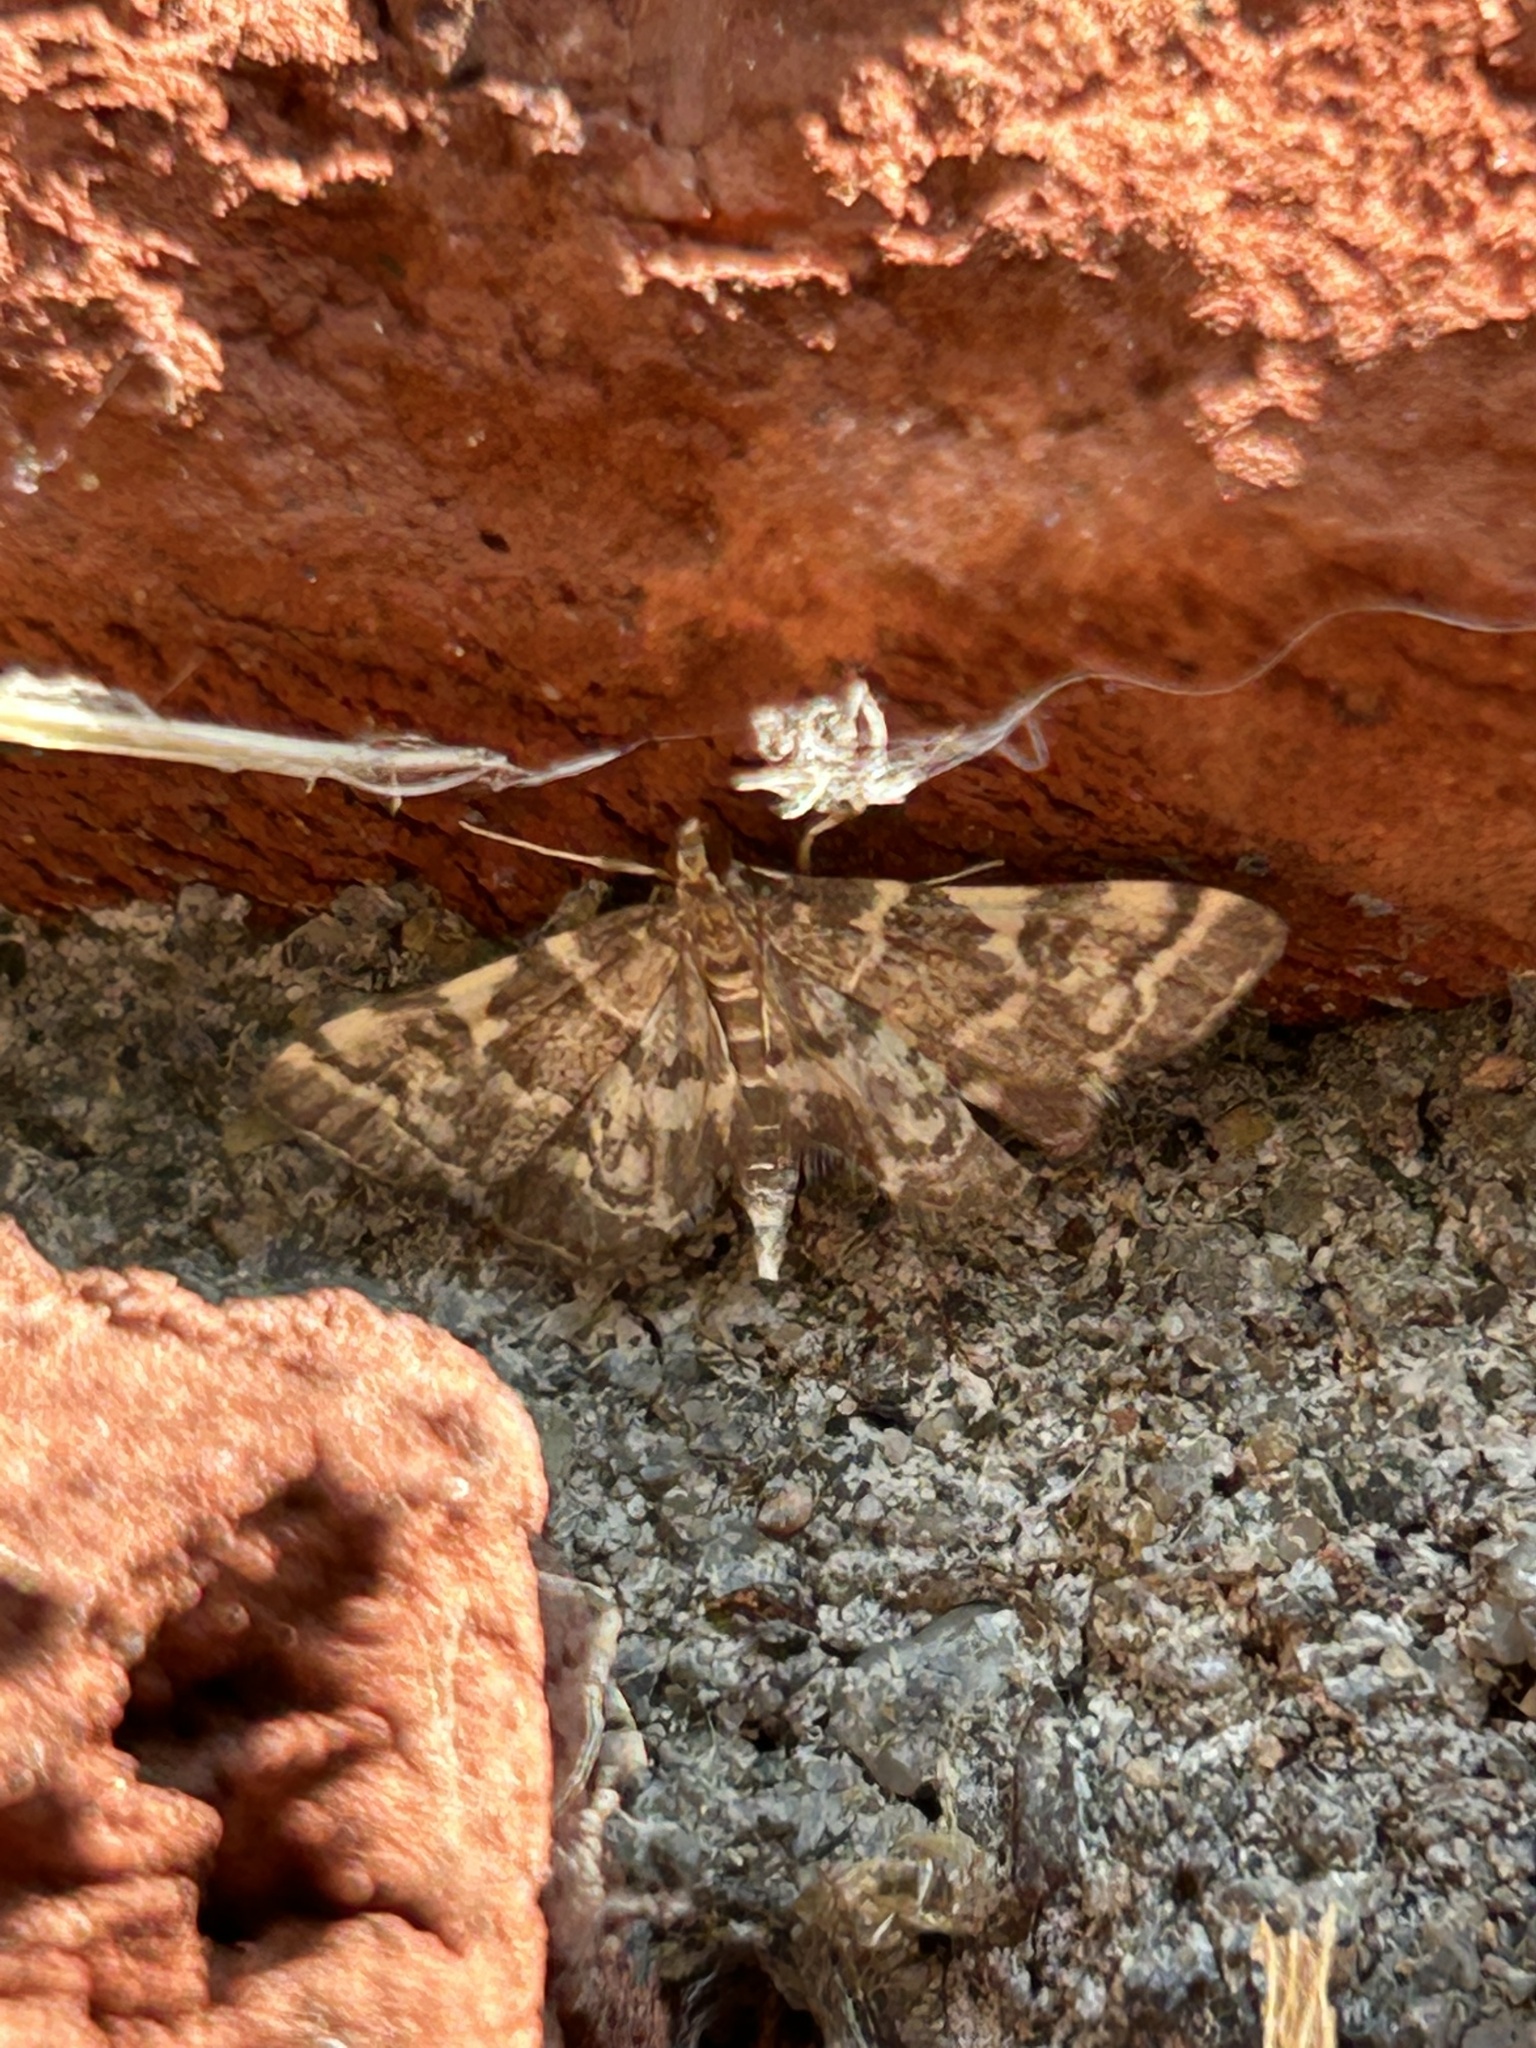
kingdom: Animalia
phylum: Arthropoda
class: Insecta
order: Lepidoptera
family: Crambidae
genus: Anageshna
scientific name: Anageshna primordialis
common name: Yellow-spotted webworm moth
